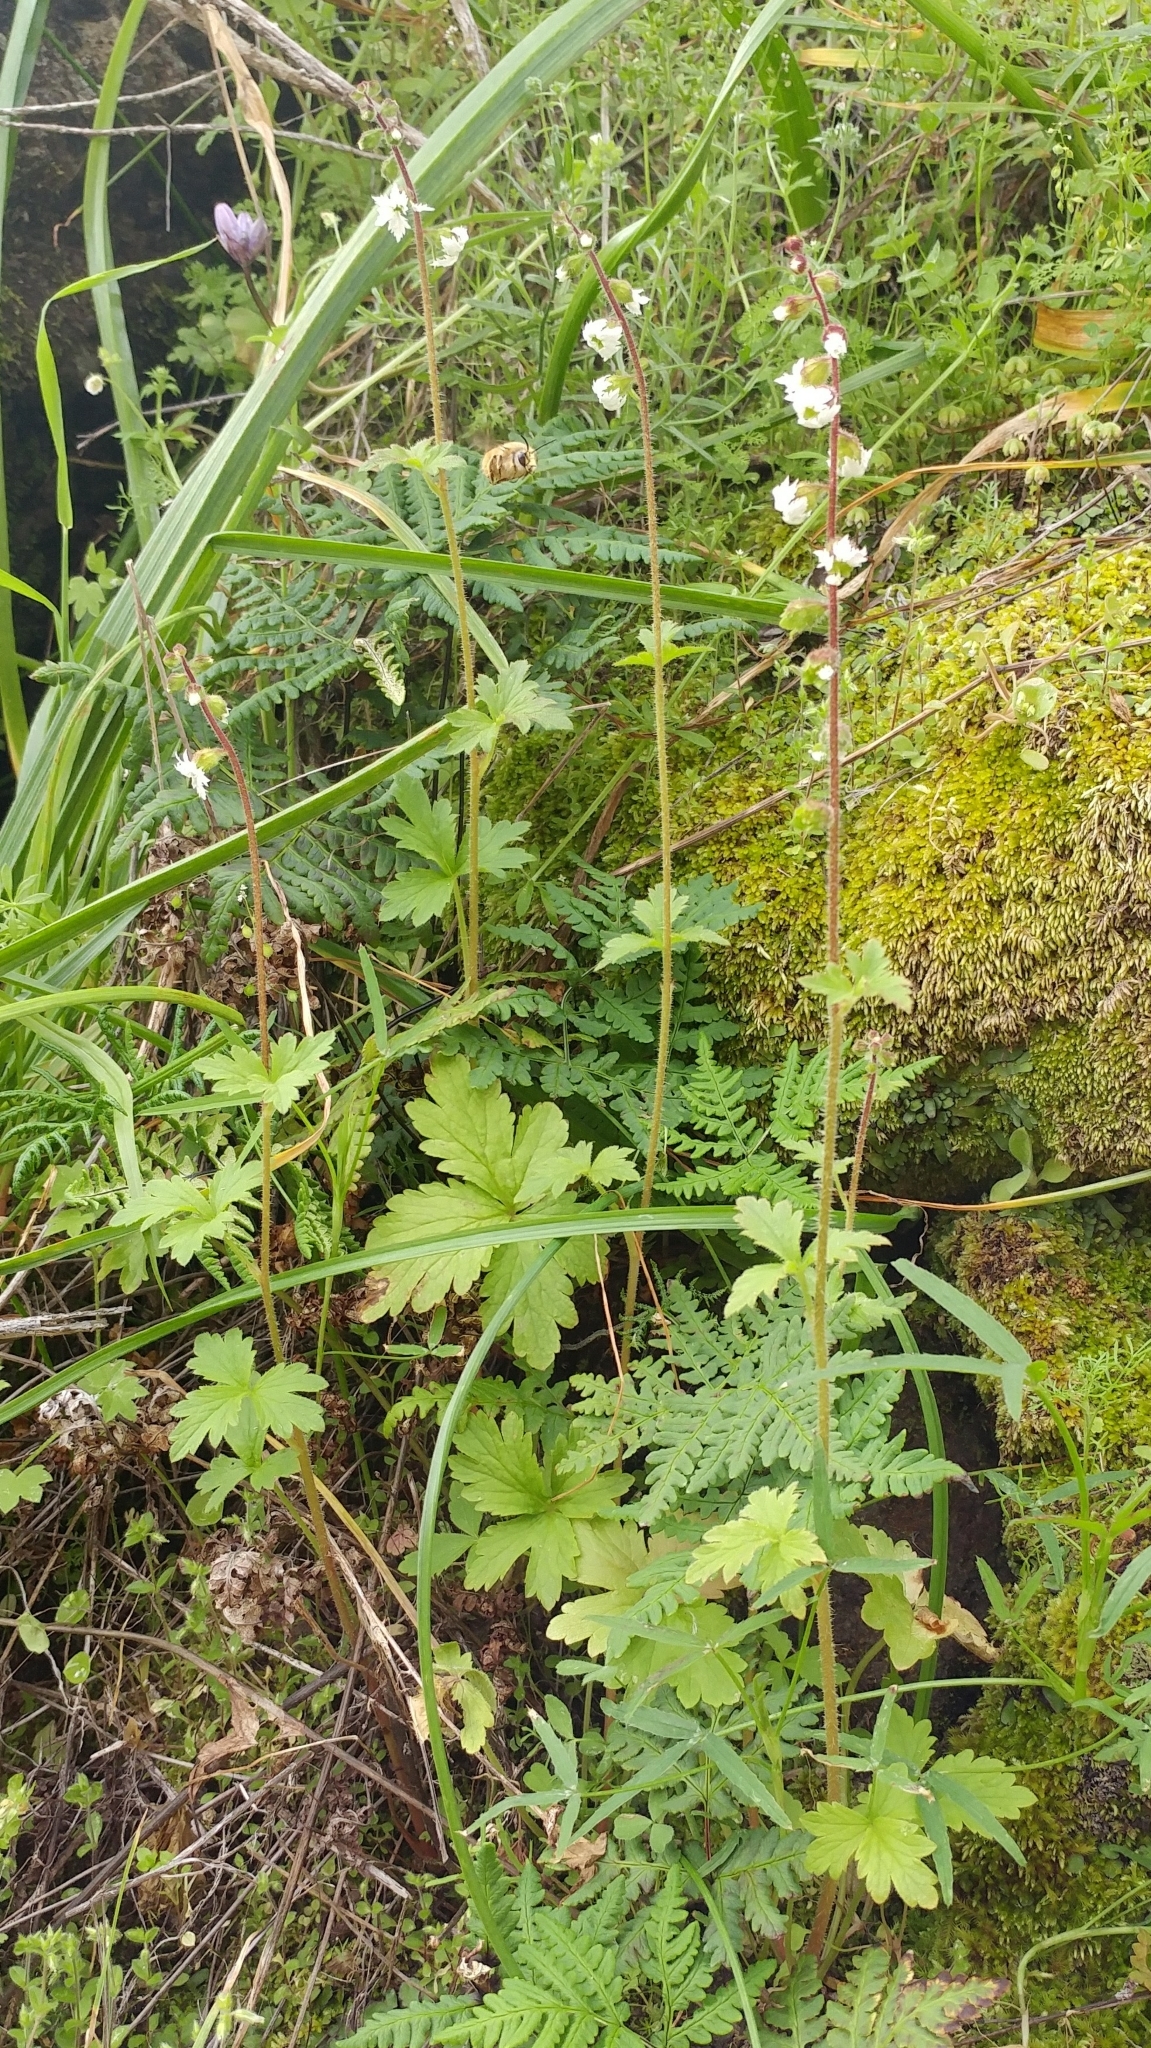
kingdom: Plantae
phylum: Tracheophyta
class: Magnoliopsida
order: Saxifragales
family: Saxifragaceae
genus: Lithophragma
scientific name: Lithophragma maxima
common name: San clemente island woodland-star
